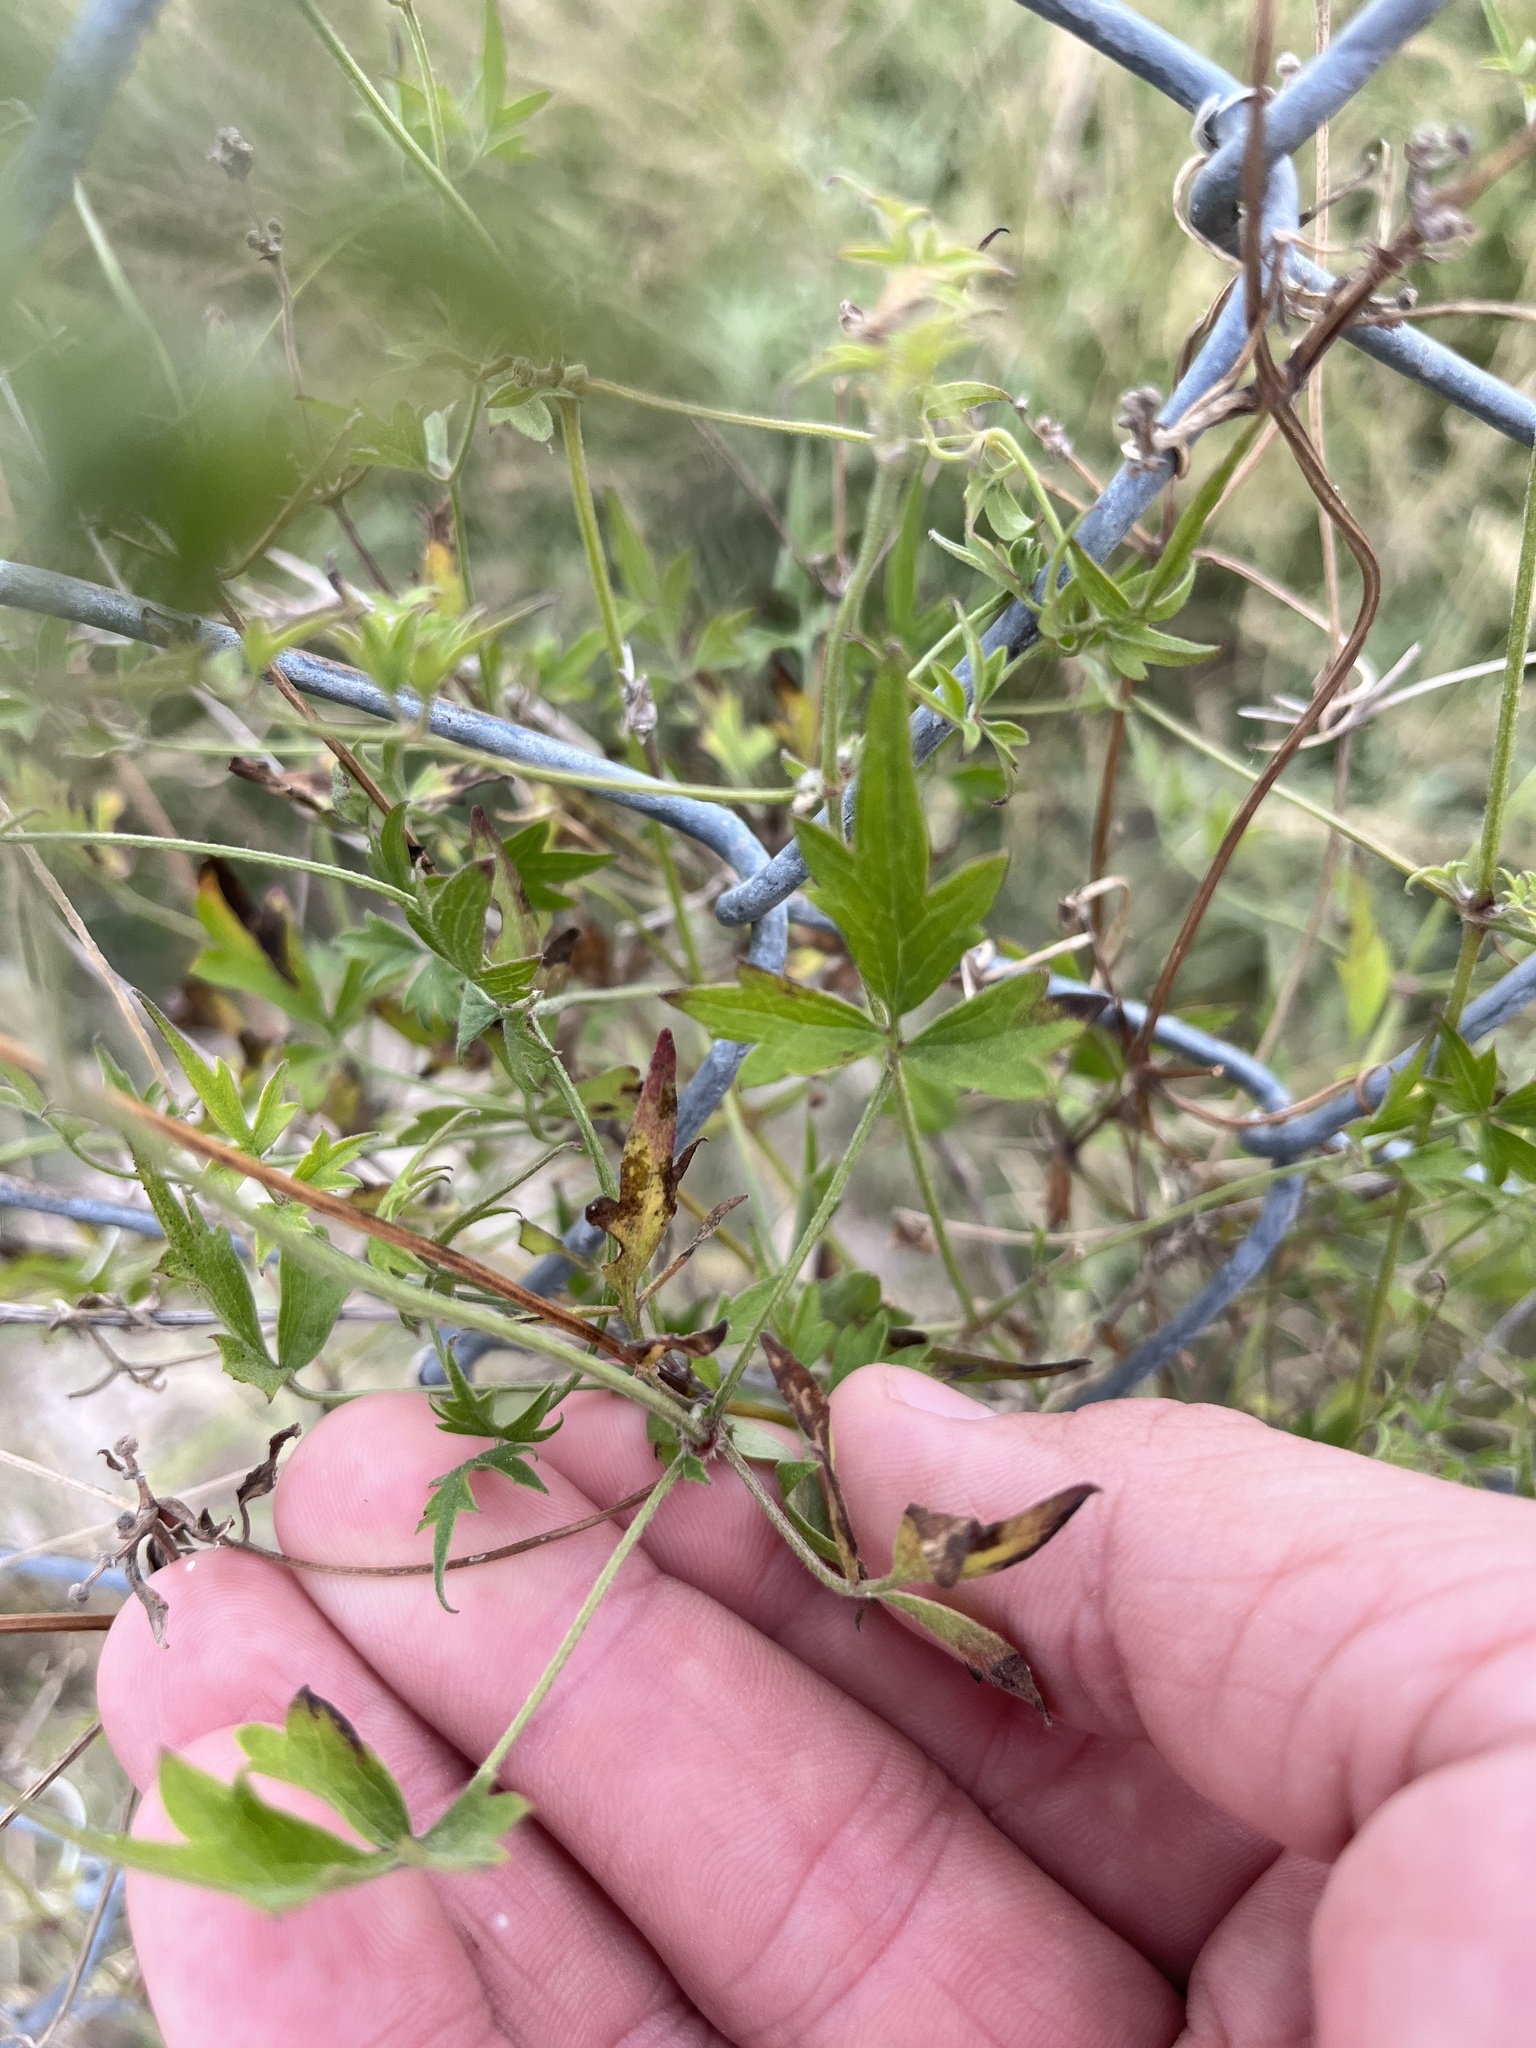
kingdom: Plantae
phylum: Tracheophyta
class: Magnoliopsida
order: Ranunculales
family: Ranunculaceae
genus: Clematis
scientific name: Clematis drummondii
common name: Texas virgin's bower
